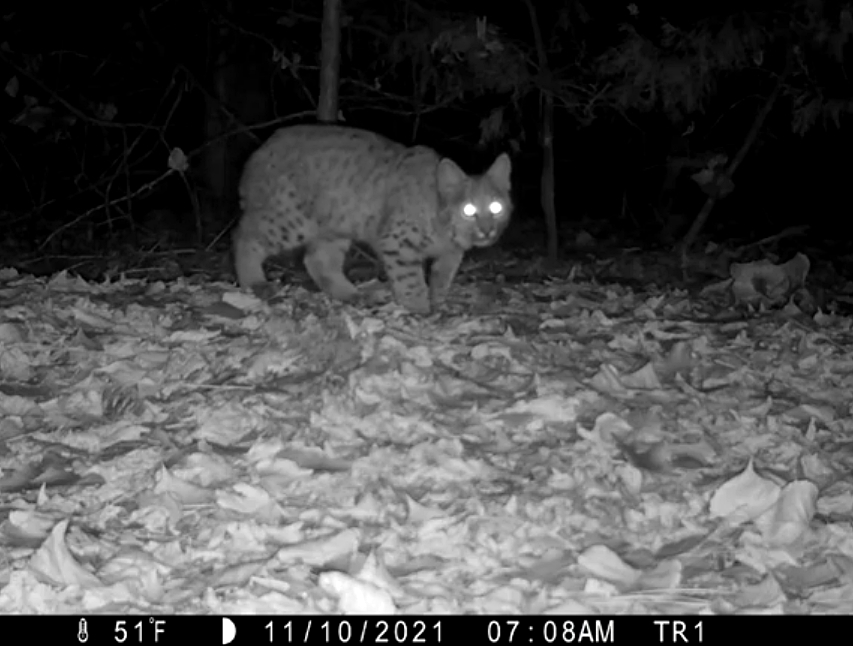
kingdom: Animalia
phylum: Chordata
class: Mammalia
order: Carnivora
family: Felidae
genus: Lynx
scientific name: Lynx rufus
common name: Bobcat
